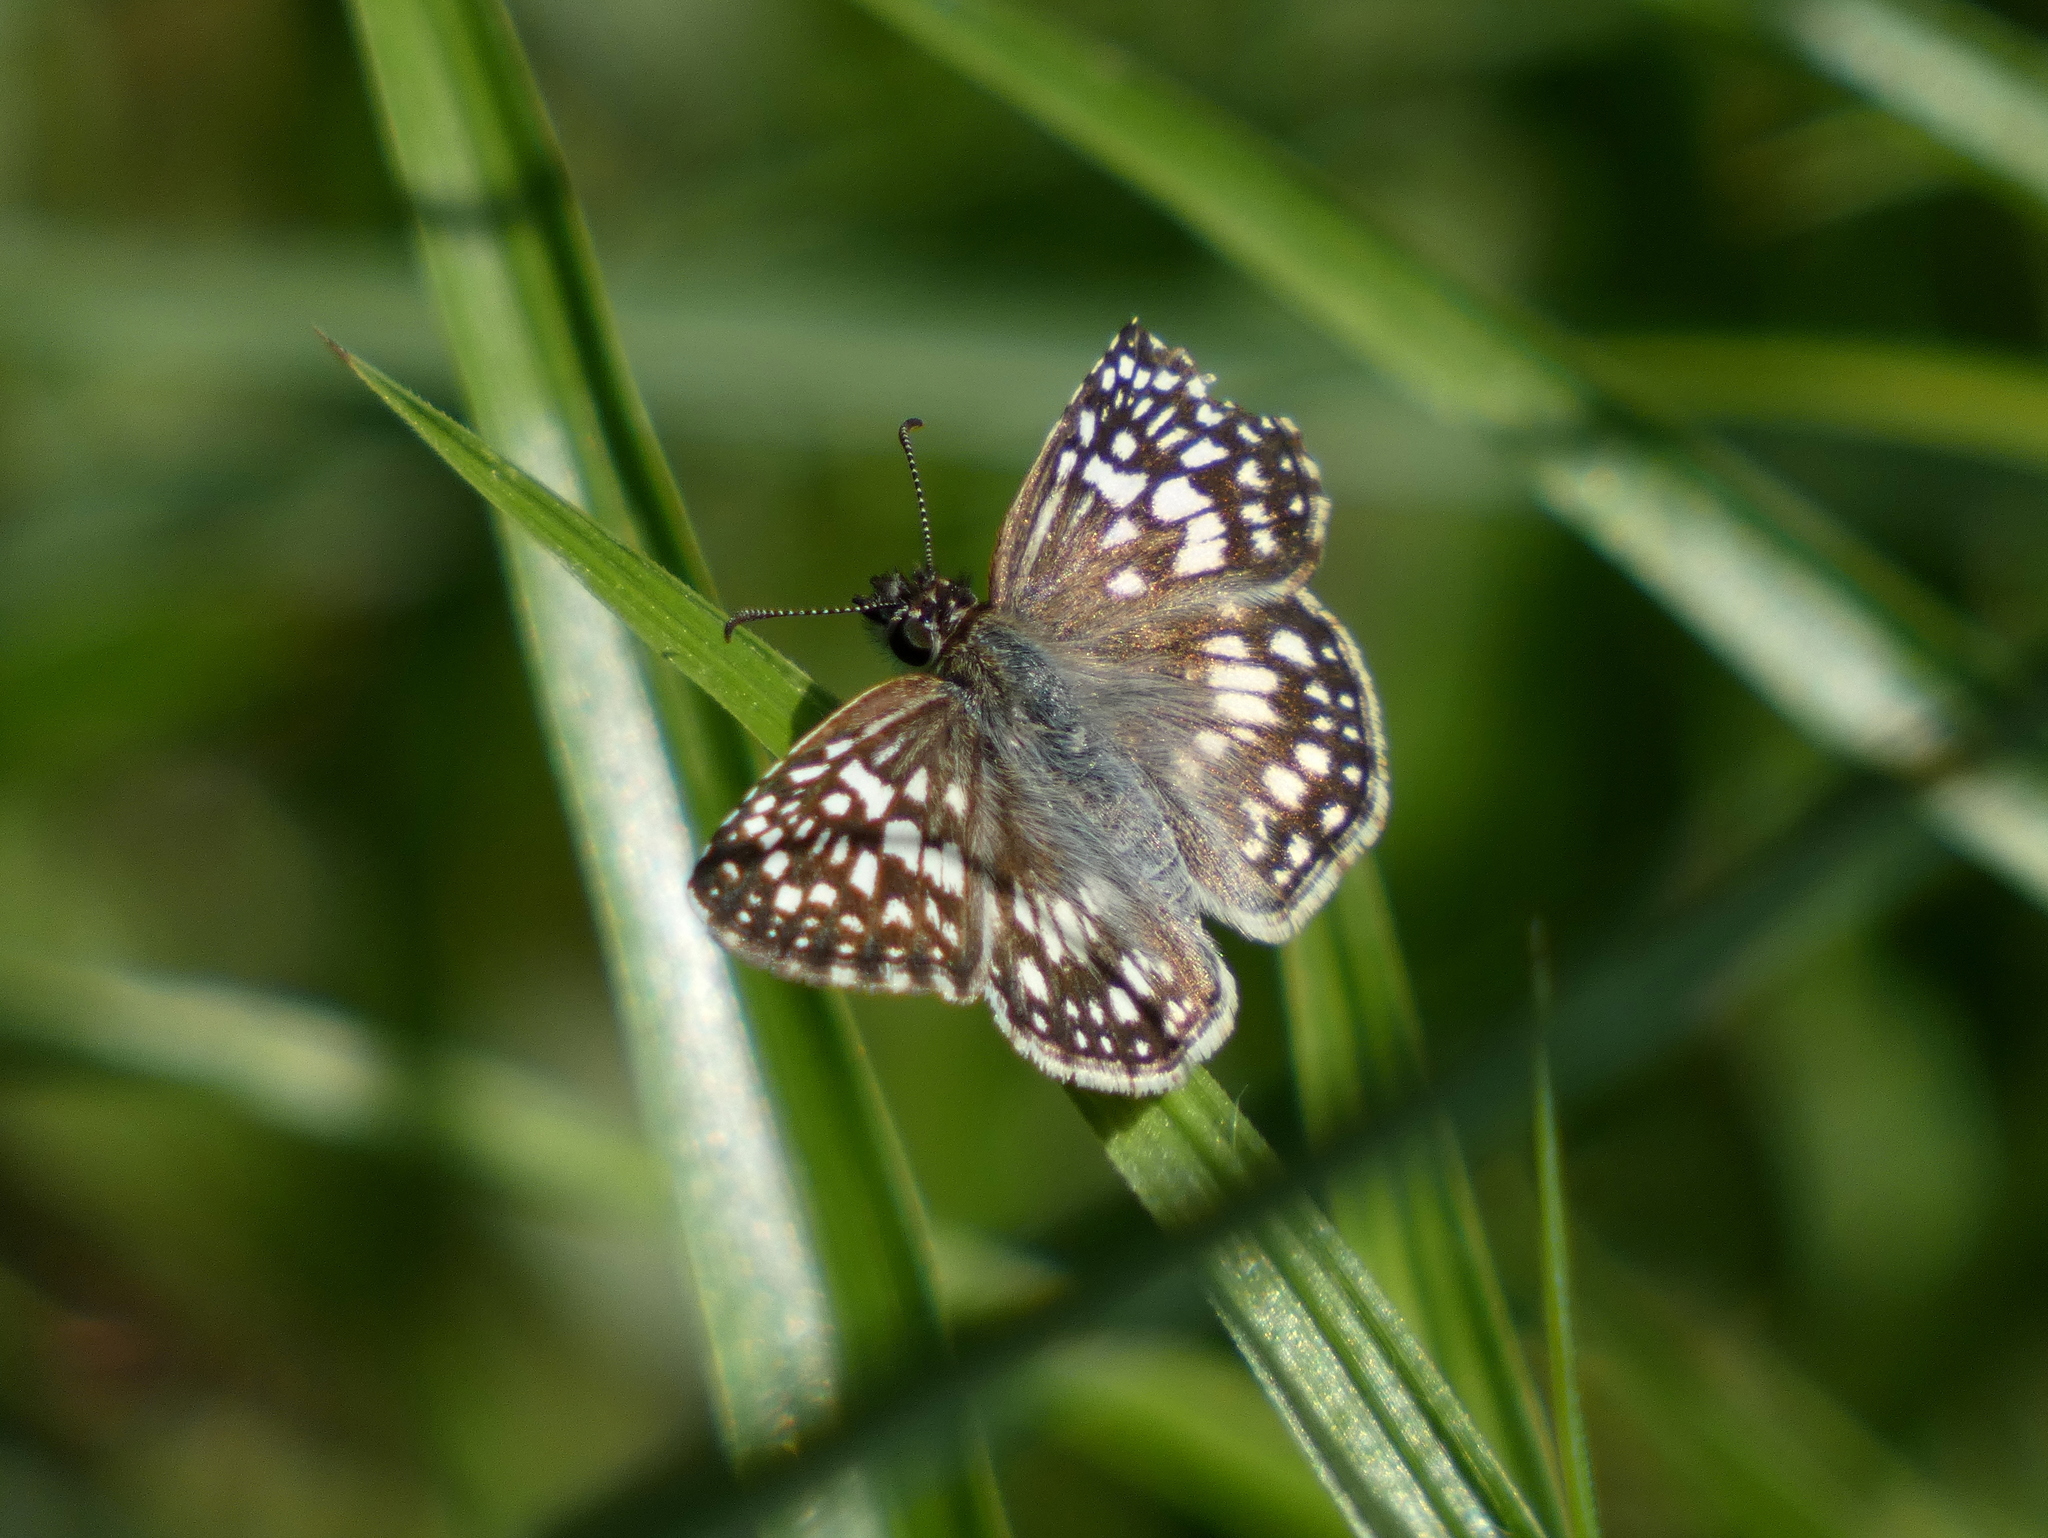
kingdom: Animalia
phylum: Arthropoda
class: Insecta
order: Lepidoptera
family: Hesperiidae
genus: Pyrgus
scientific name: Pyrgus oileus
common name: Tropical checkered-skipper
